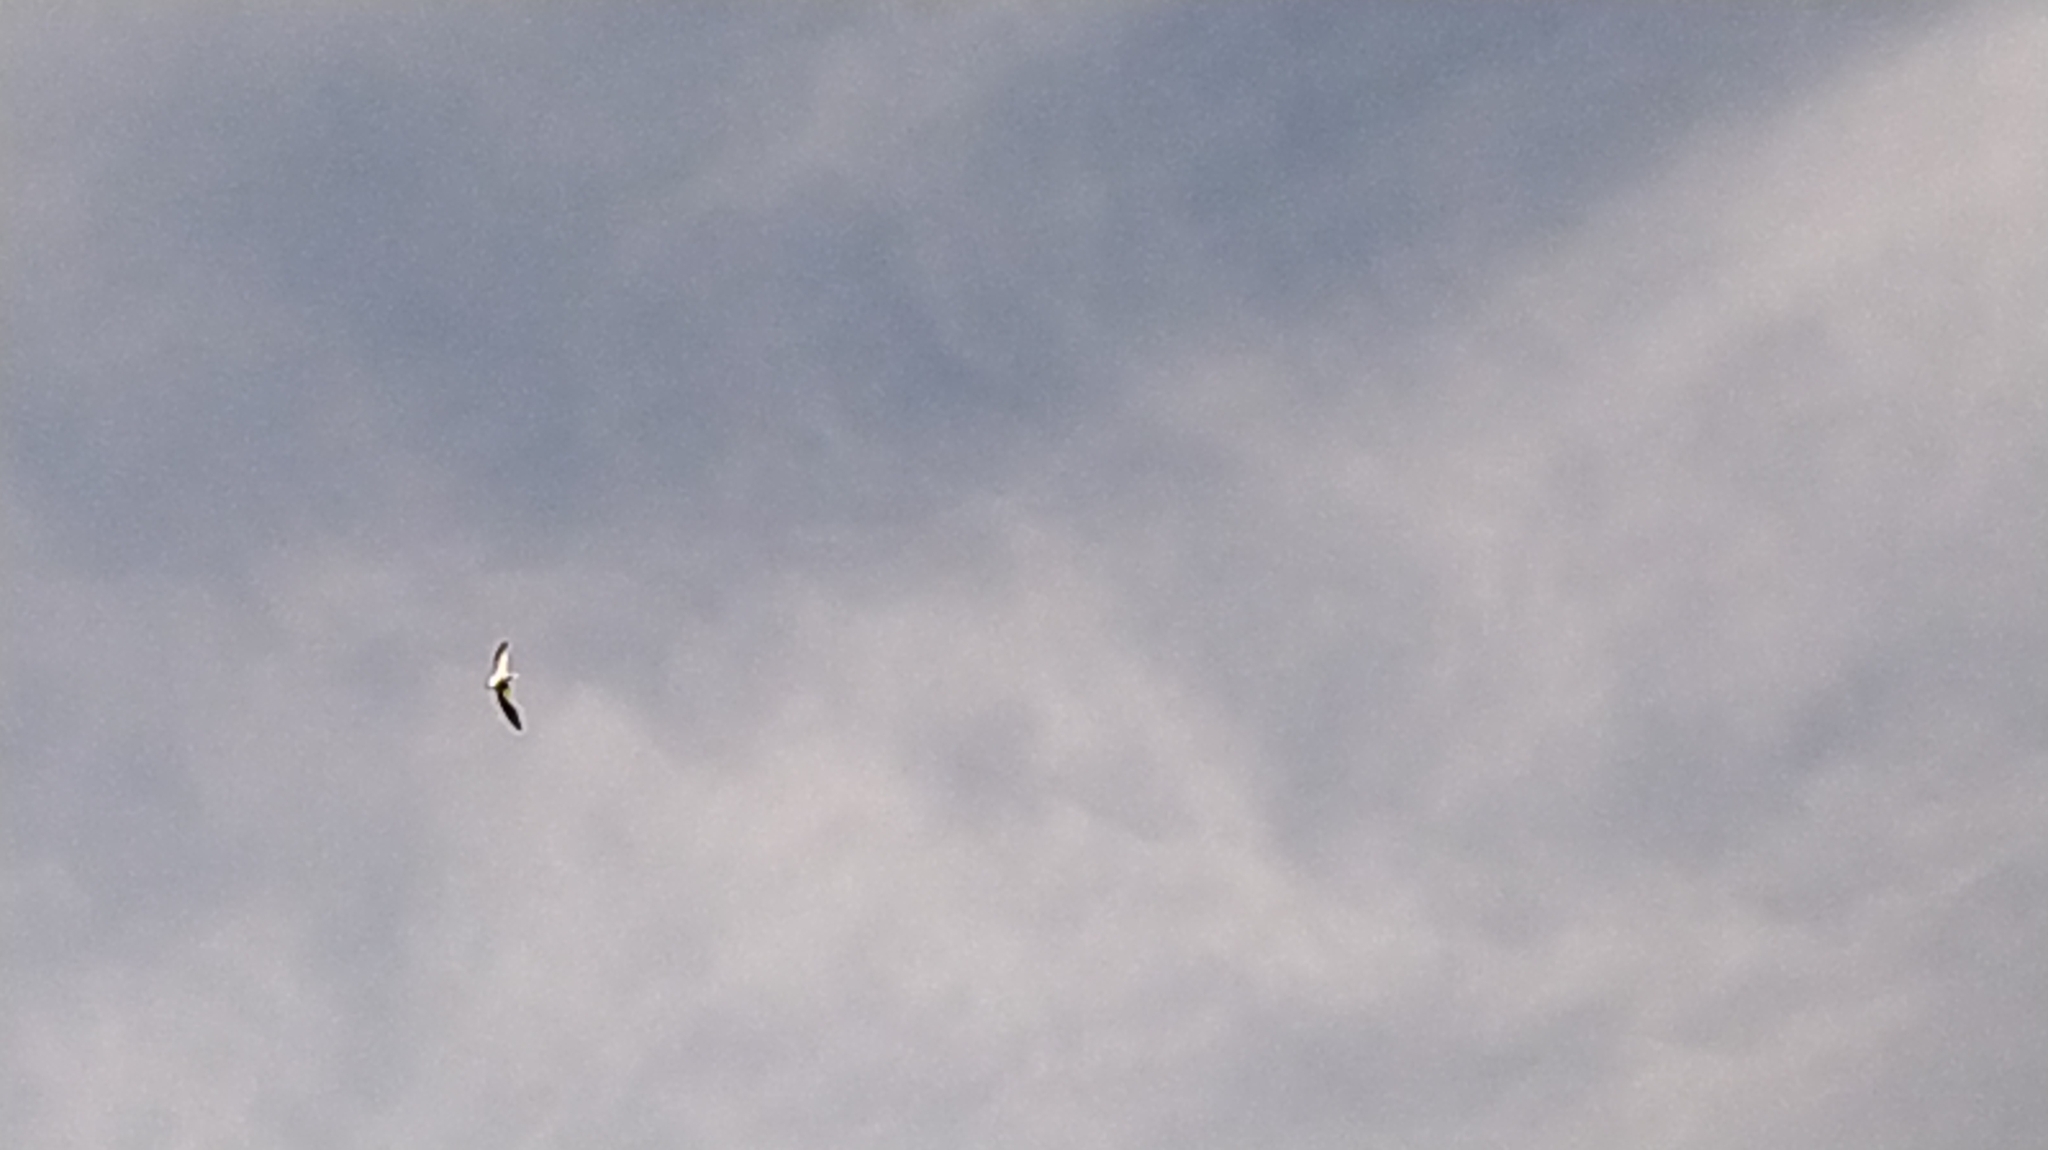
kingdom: Animalia
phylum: Chordata
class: Aves
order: Passeriformes
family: Hirundinidae
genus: Hirundo
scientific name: Hirundo rustica
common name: Barn swallow
